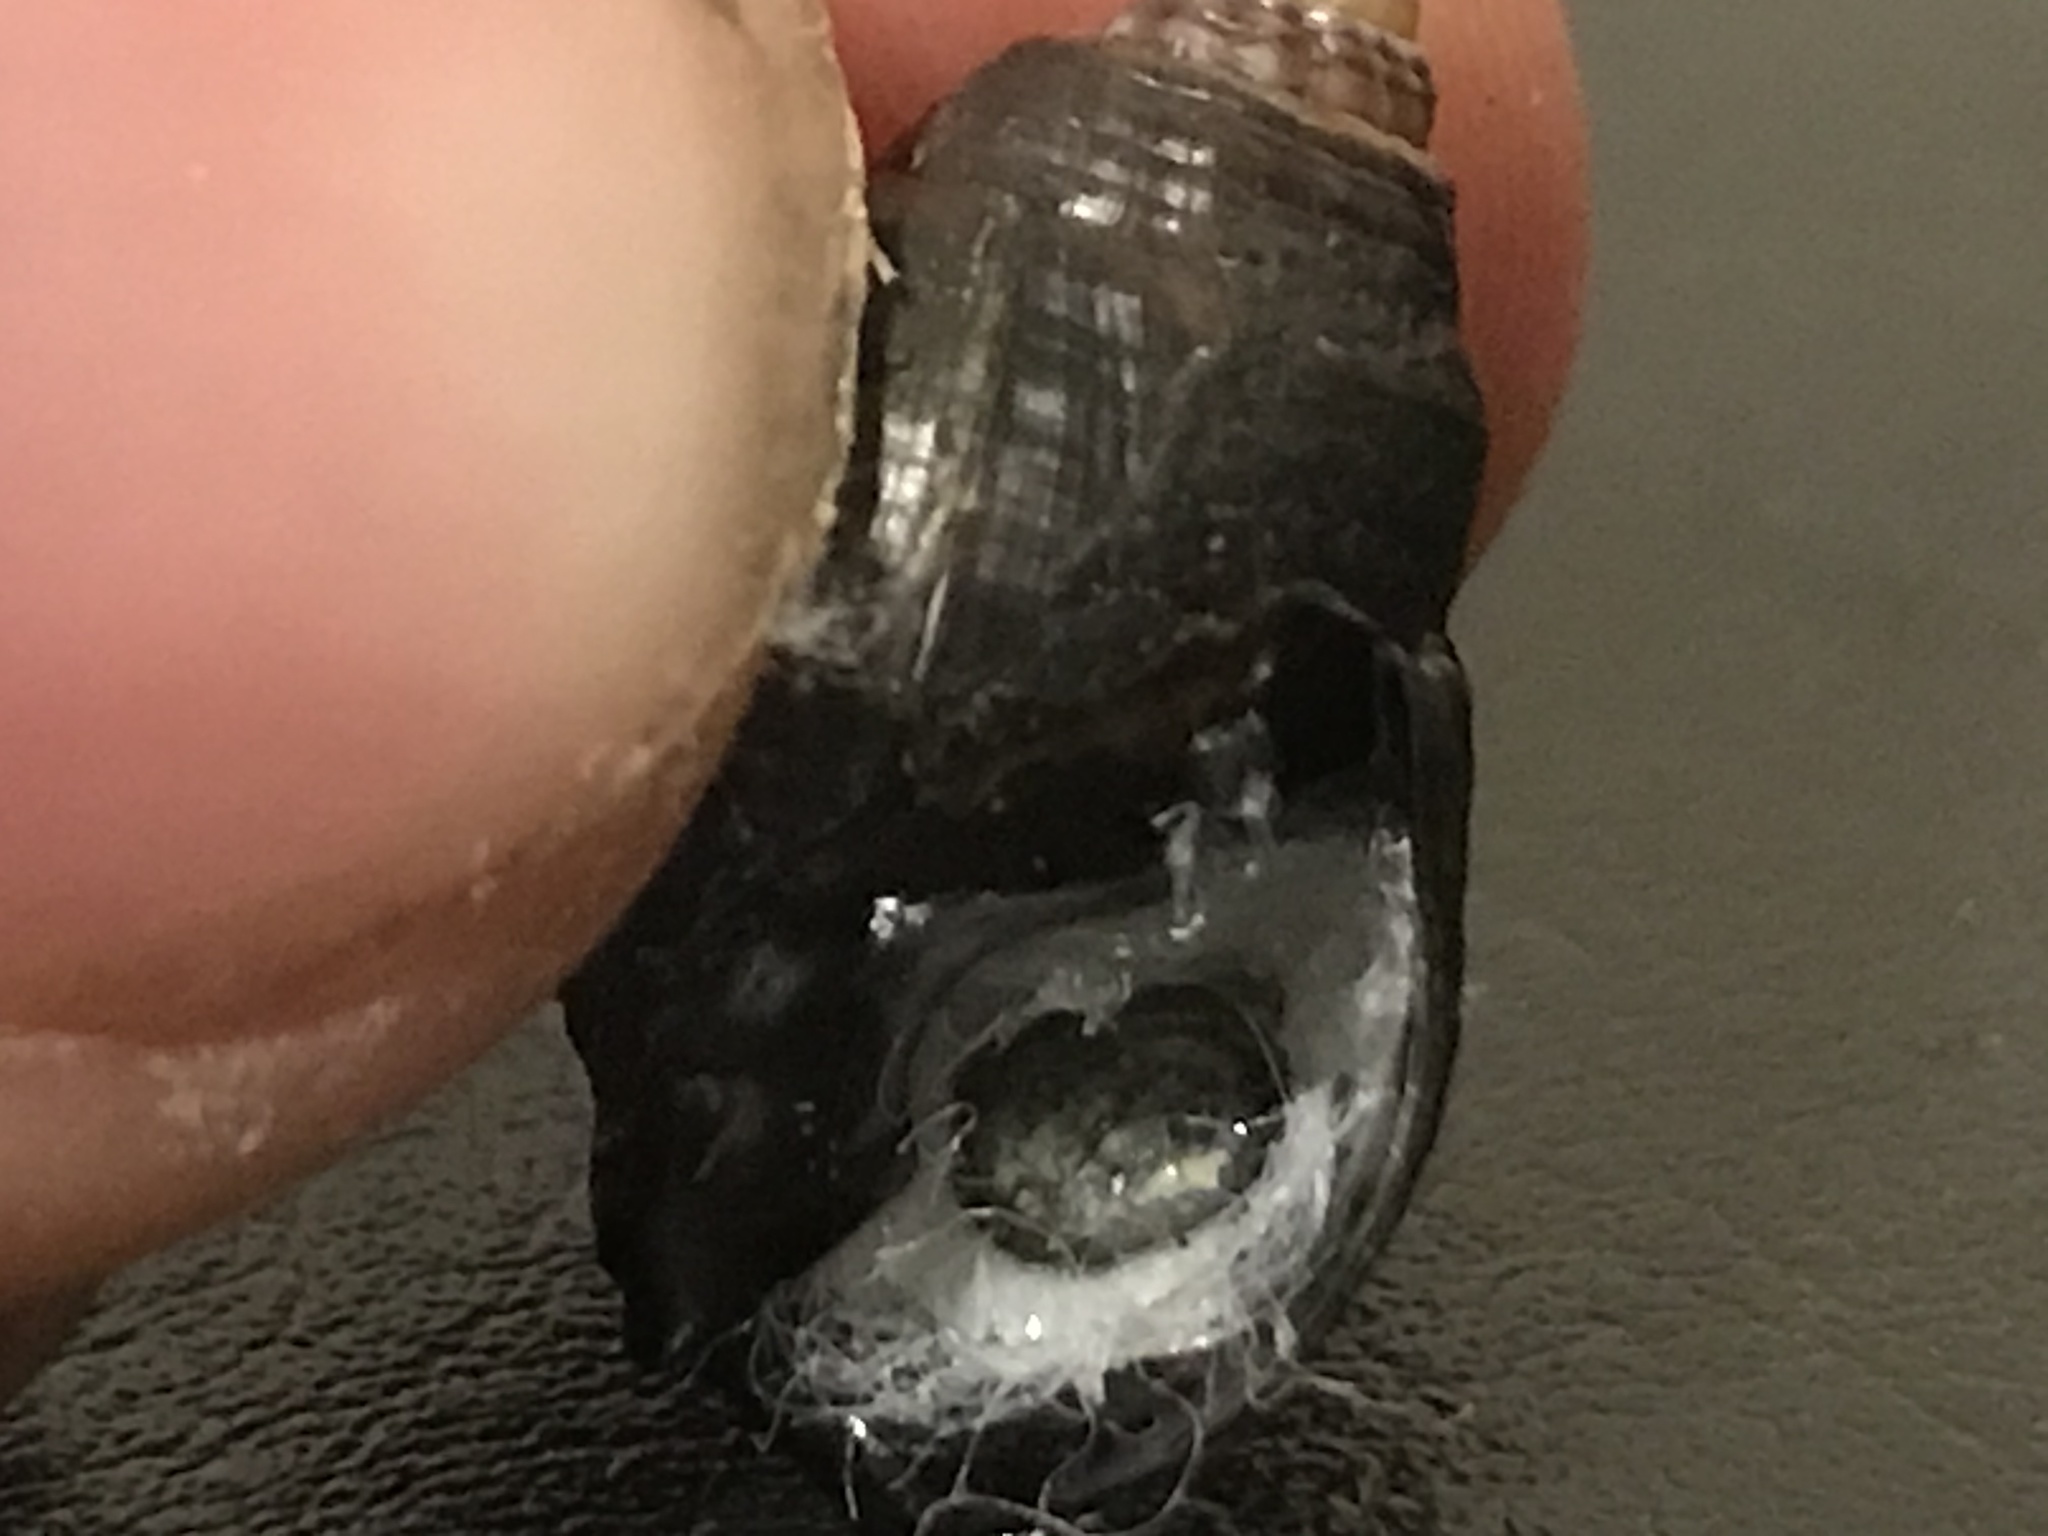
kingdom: Animalia
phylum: Mollusca
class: Gastropoda
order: Neogastropoda
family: Nassariidae
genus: Ilyanassa
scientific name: Ilyanassa obsoleta
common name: Eastern mudsnail
